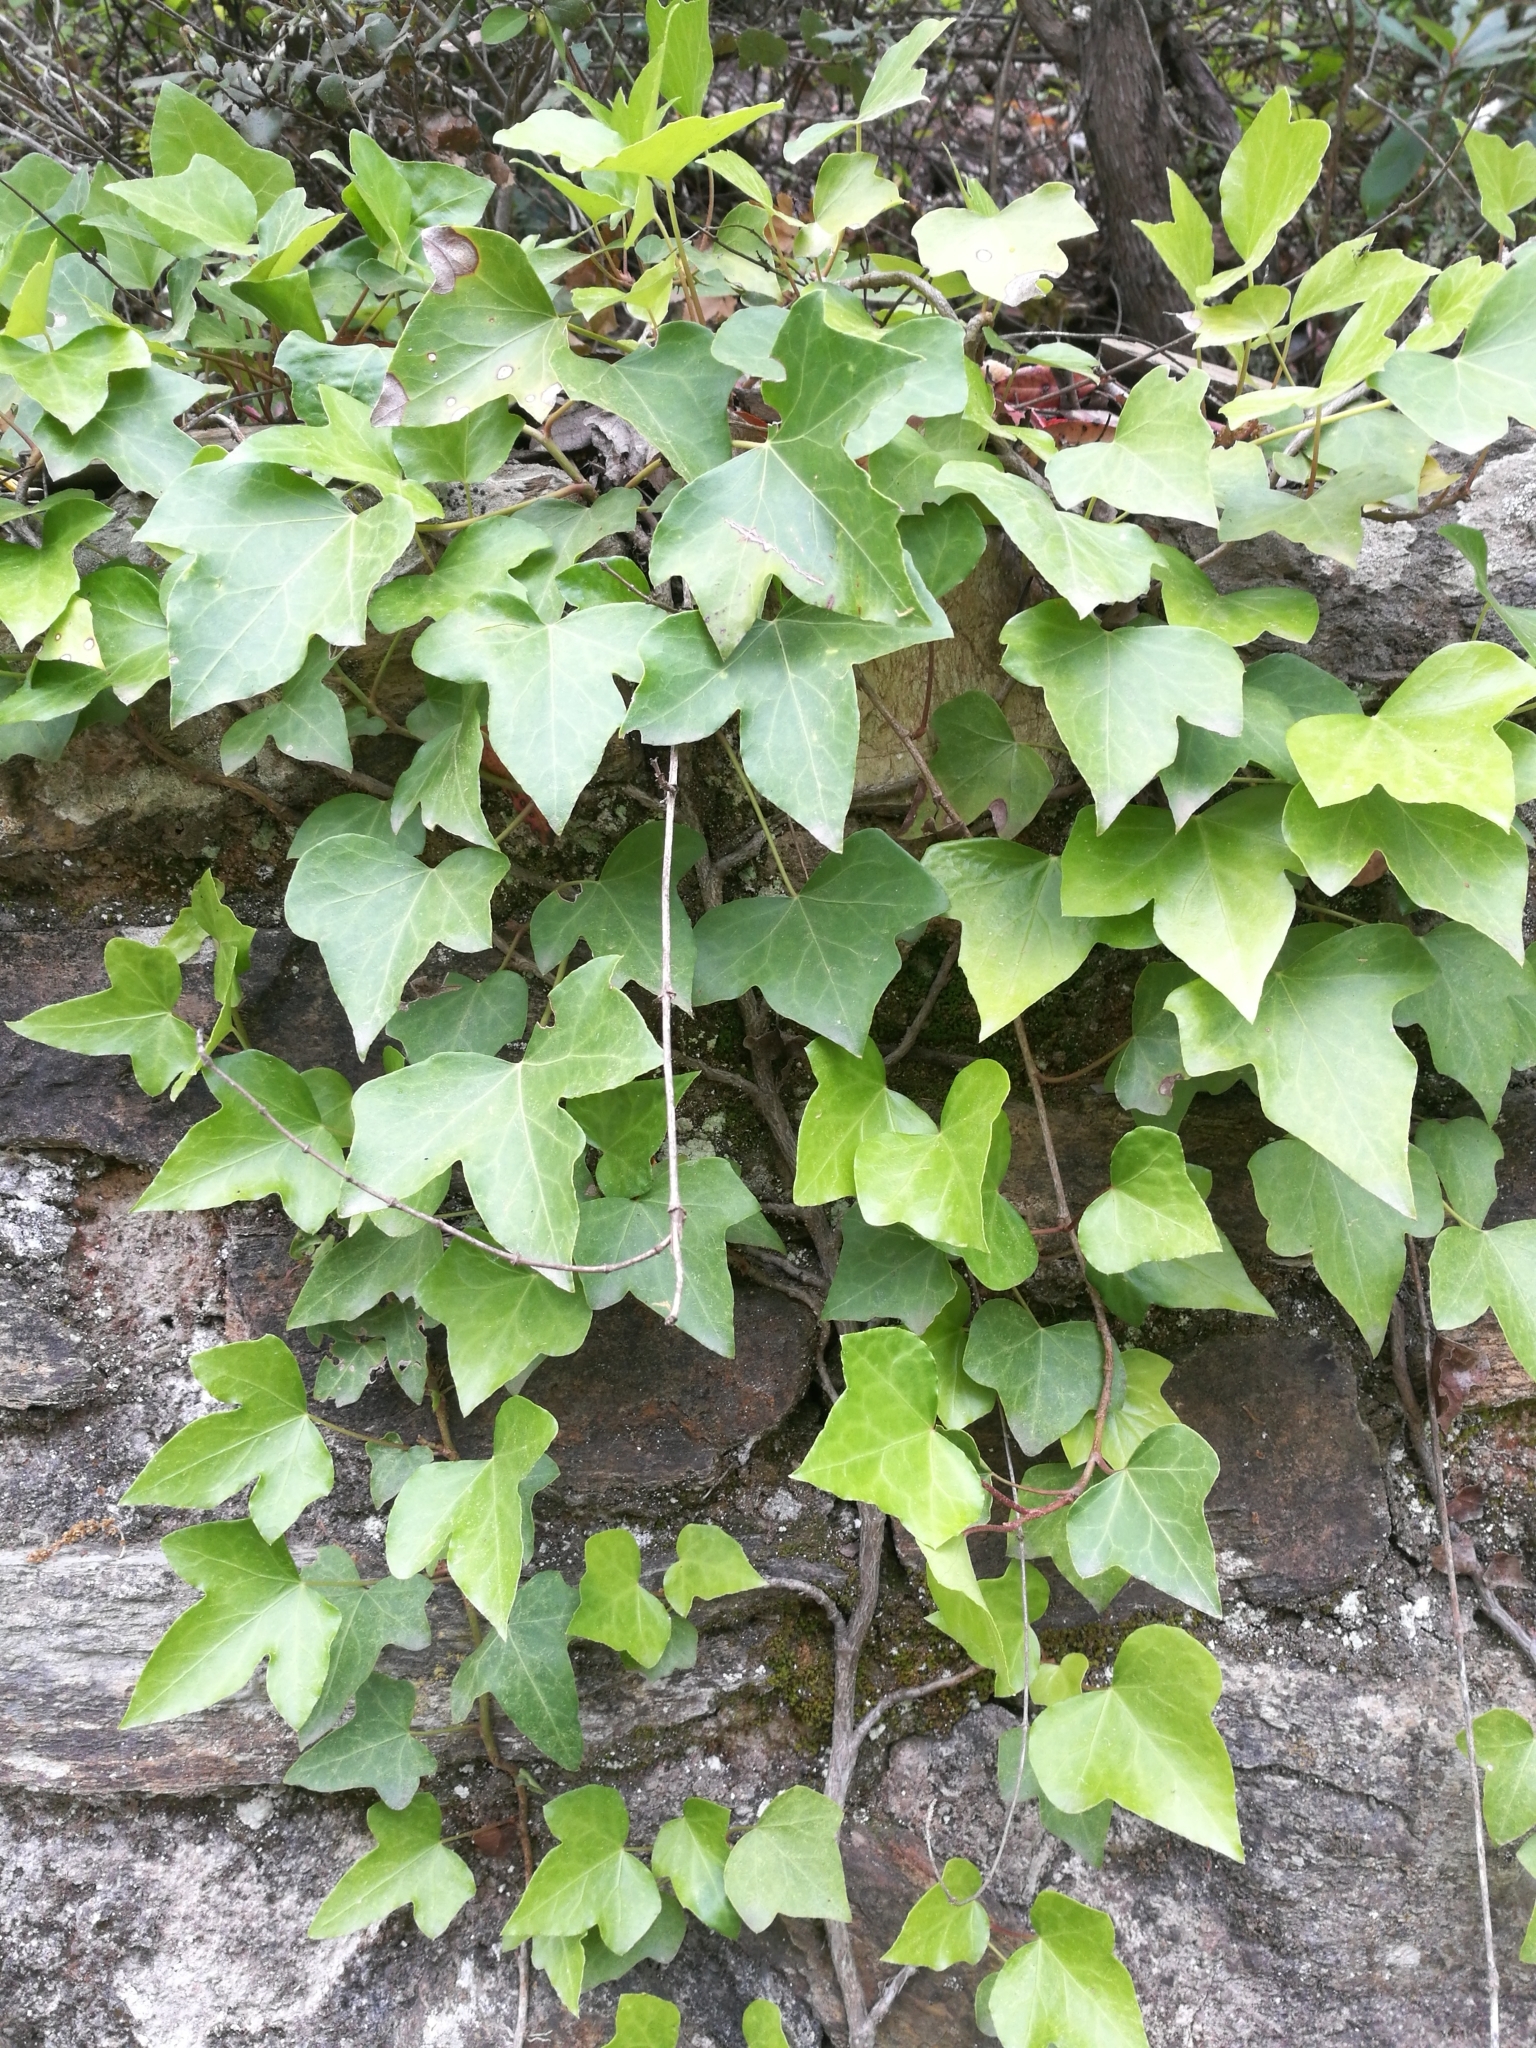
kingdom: Plantae
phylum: Tracheophyta
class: Magnoliopsida
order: Apiales
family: Araliaceae
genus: Hedera
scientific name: Hedera helix
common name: Ivy
